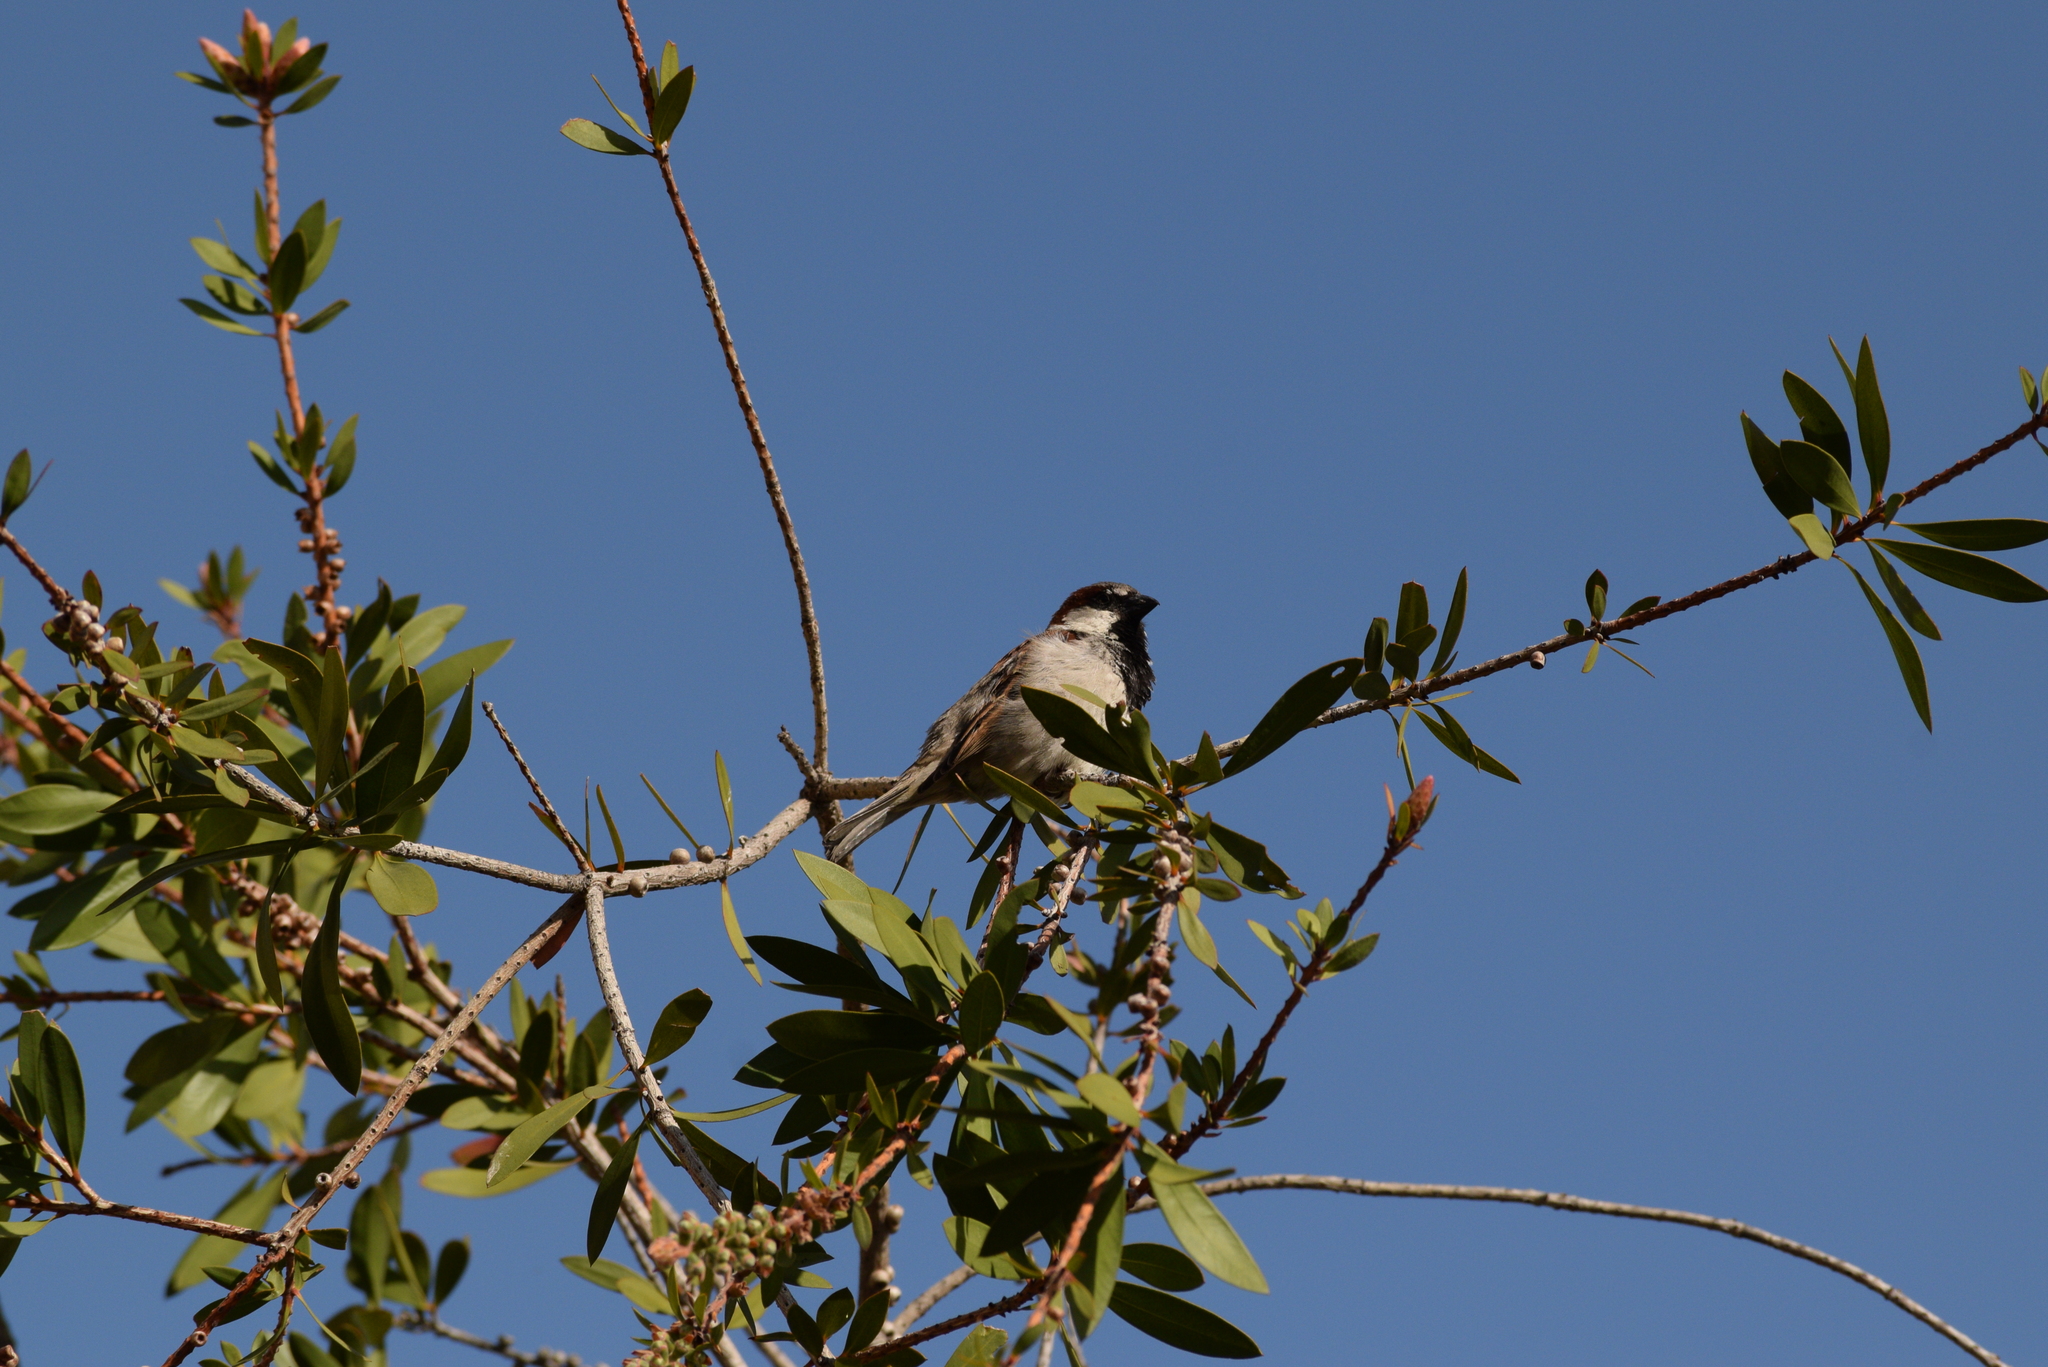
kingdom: Animalia
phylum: Chordata
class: Aves
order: Passeriformes
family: Passerellidae
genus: Amphispiza
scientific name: Amphispiza bilineata
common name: Black-throated sparrow
